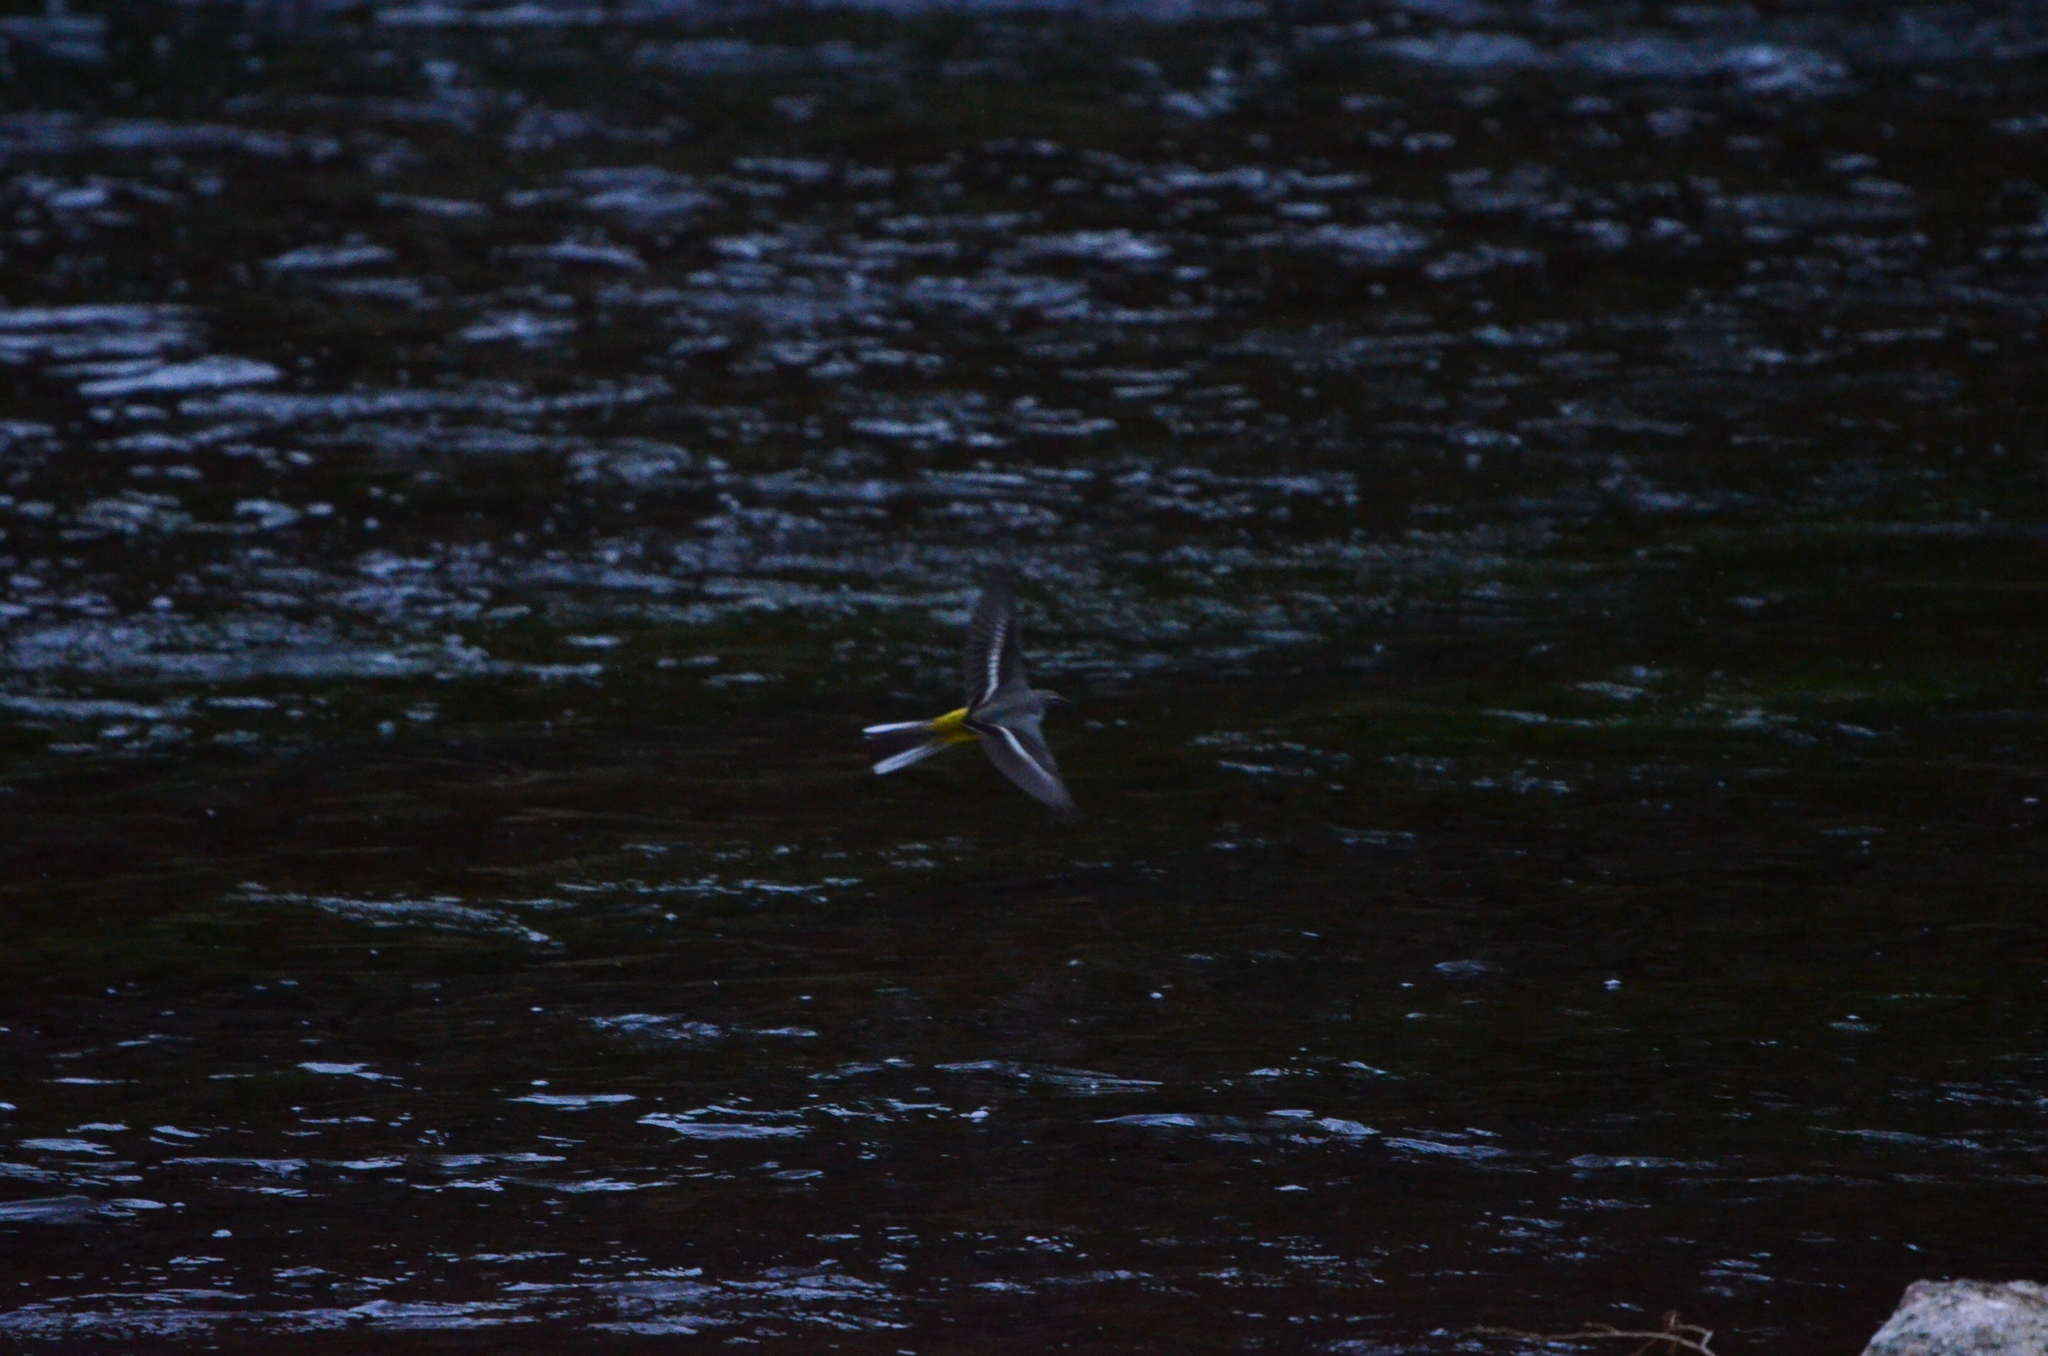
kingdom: Animalia
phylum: Chordata
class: Aves
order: Passeriformes
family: Motacillidae
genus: Motacilla
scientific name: Motacilla cinerea
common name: Grey wagtail
